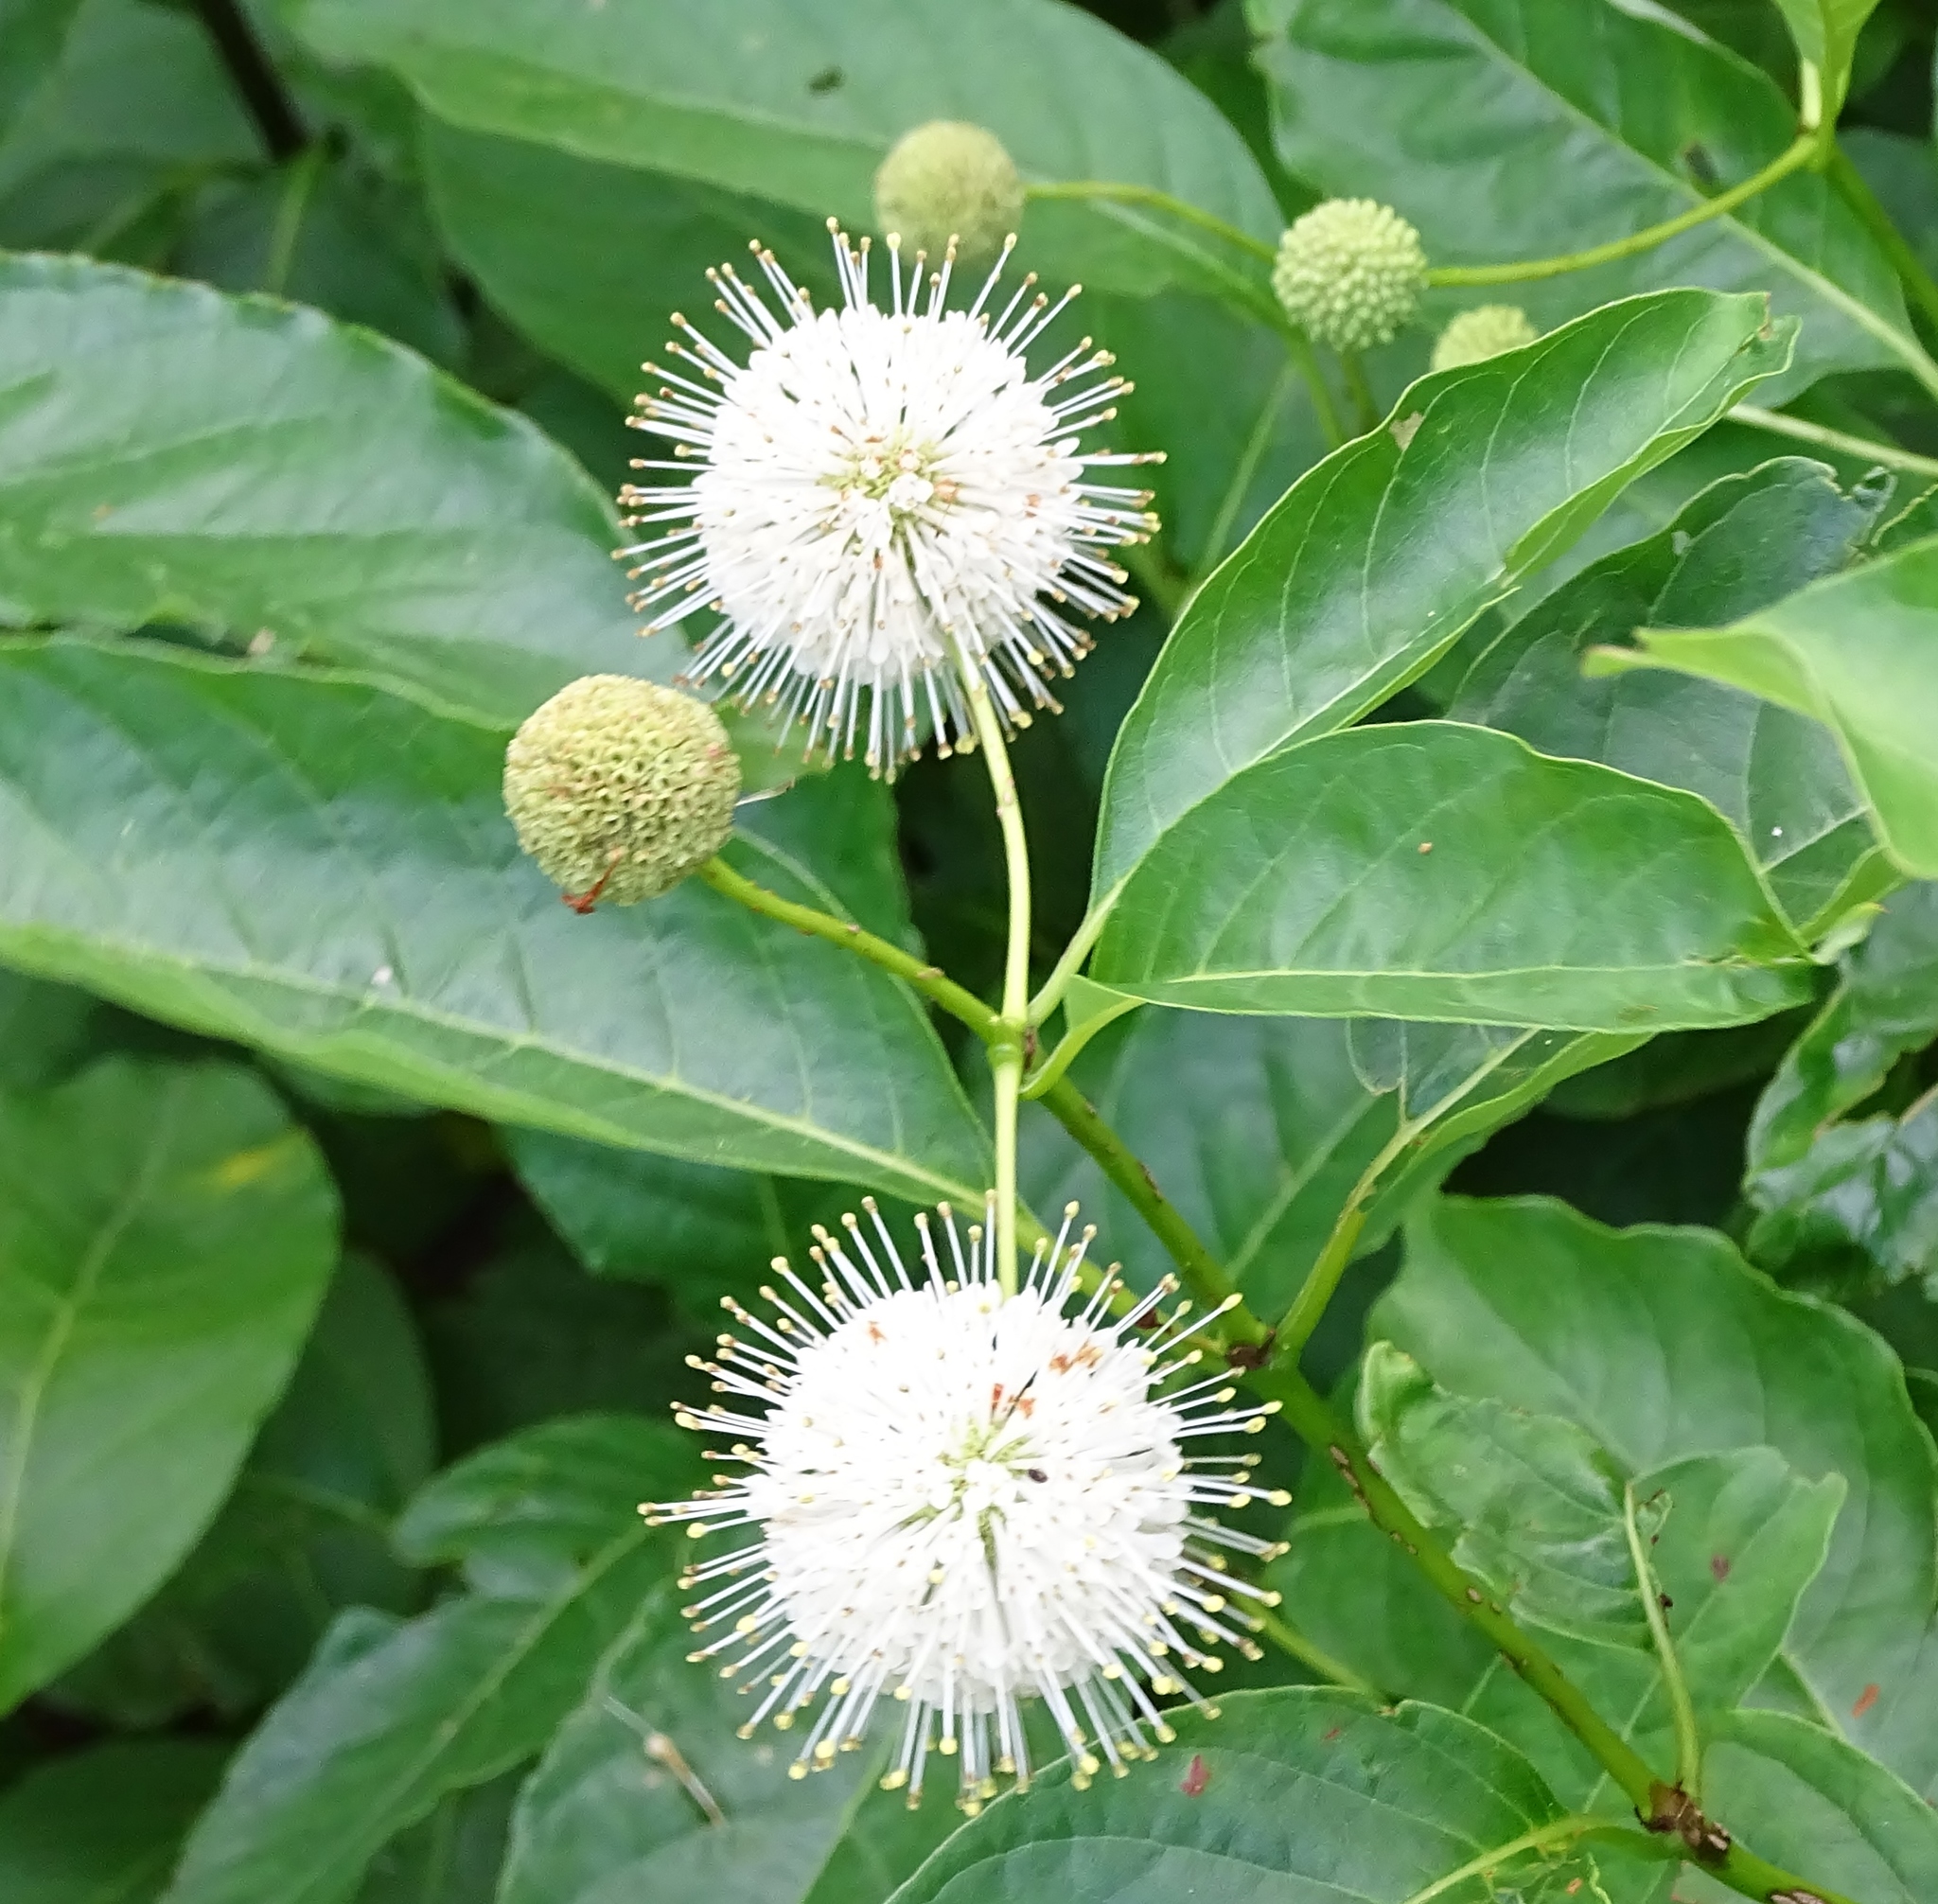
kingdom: Plantae
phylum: Tracheophyta
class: Magnoliopsida
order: Gentianales
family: Rubiaceae
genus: Cephalanthus
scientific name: Cephalanthus occidentalis
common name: Button-willow
